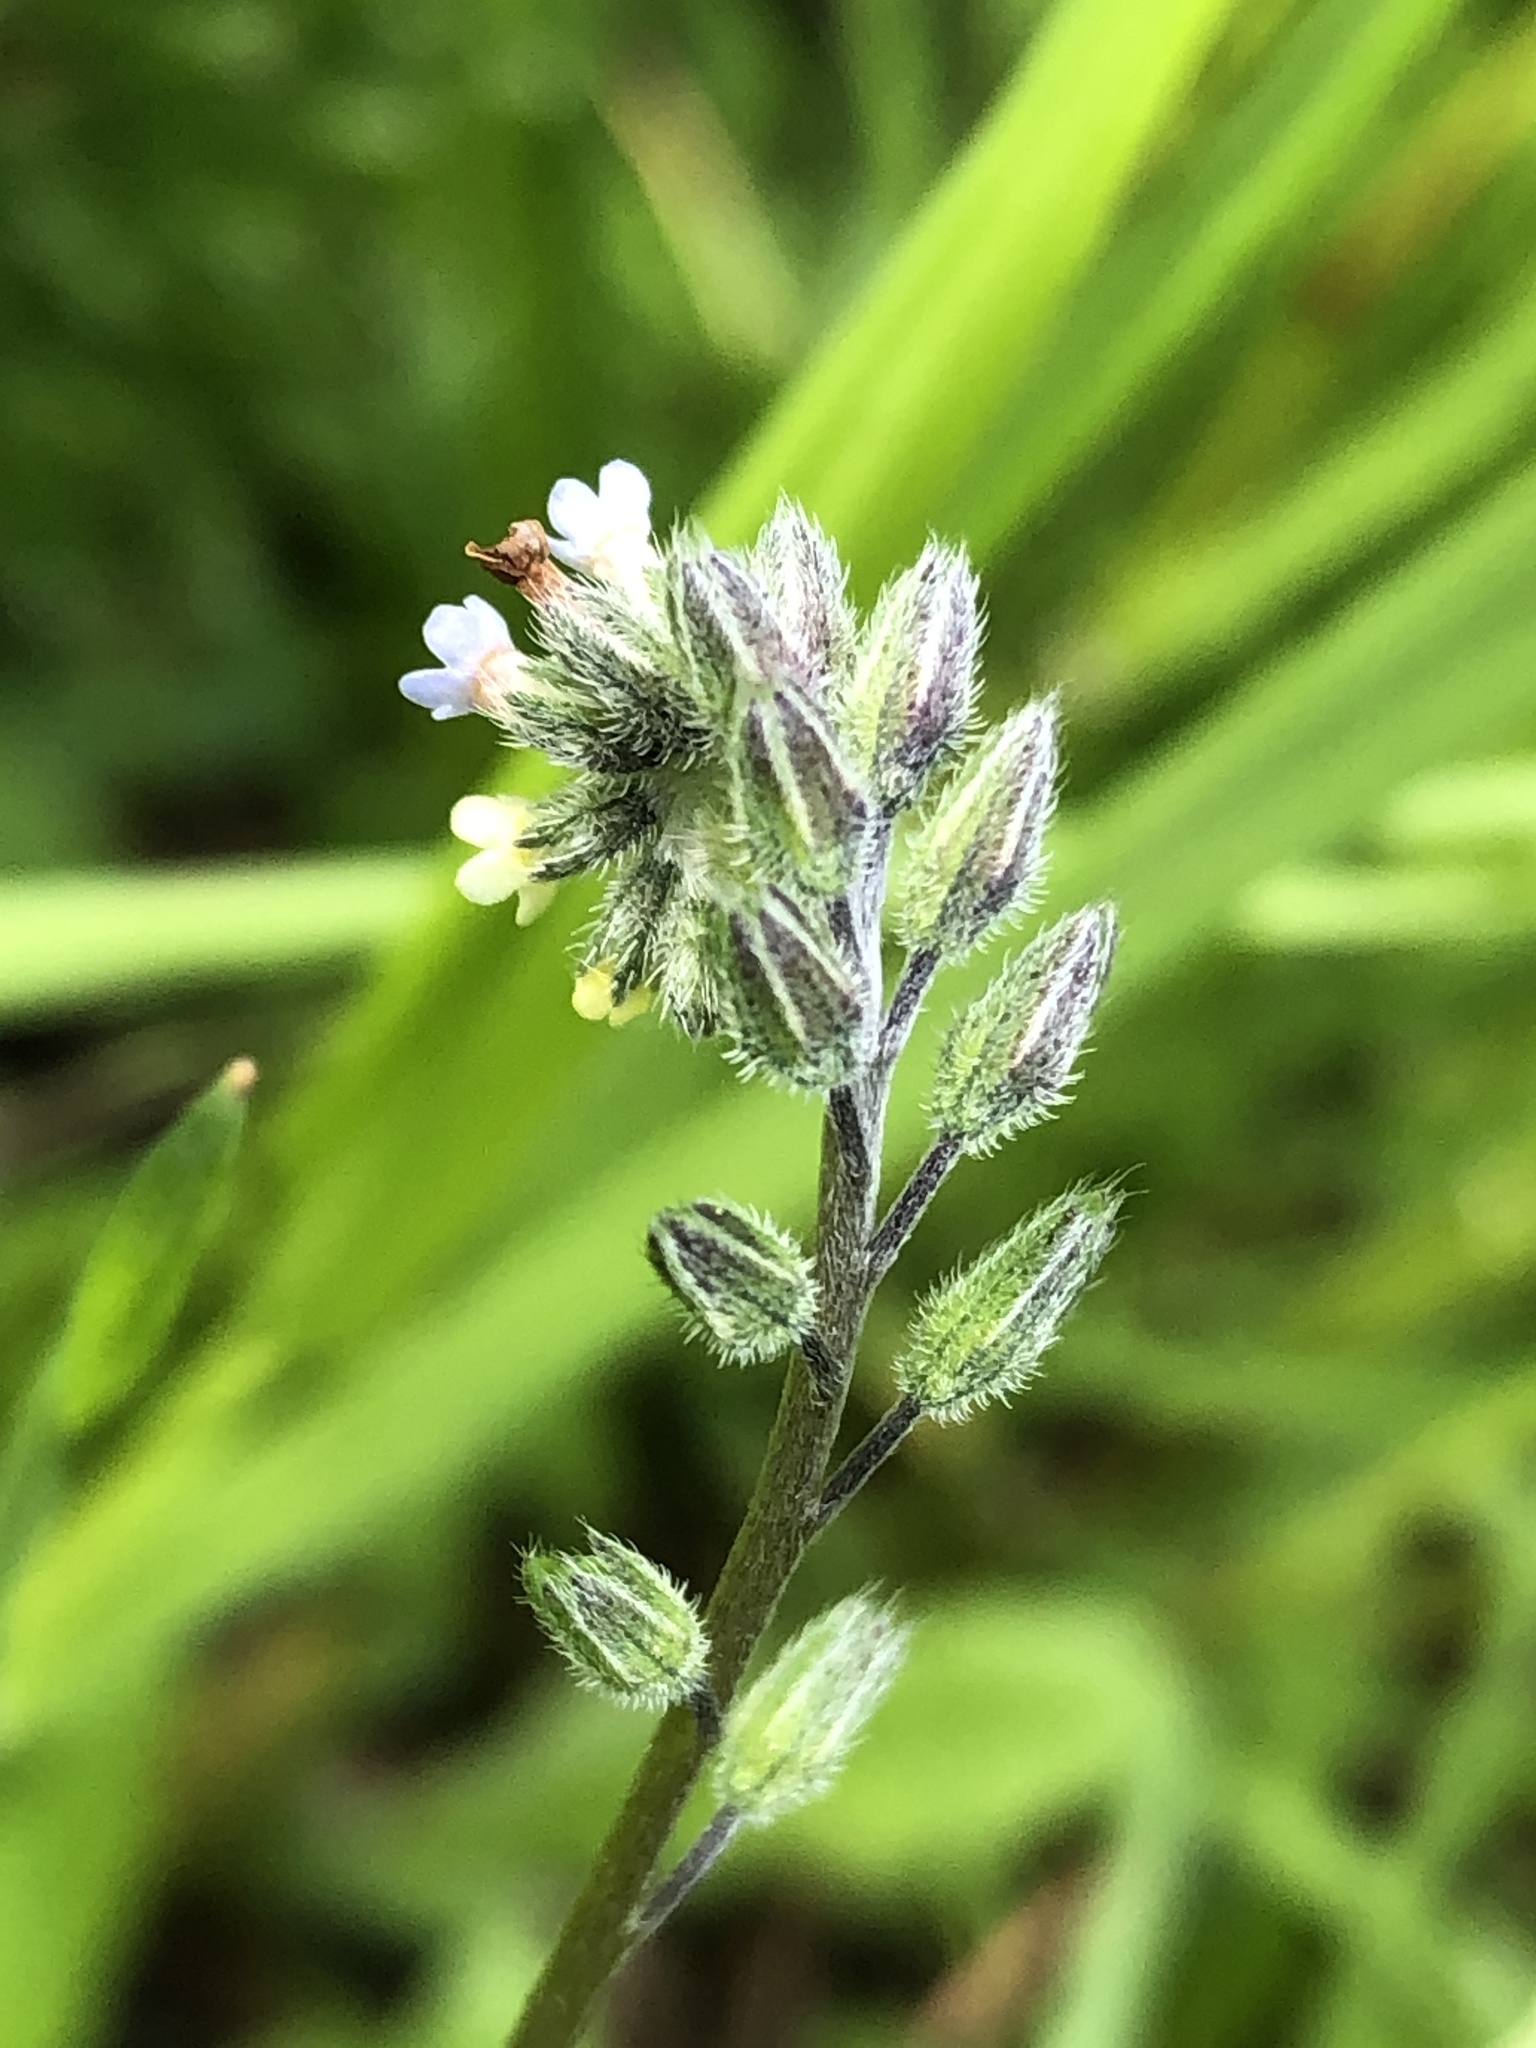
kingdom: Plantae
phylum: Tracheophyta
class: Magnoliopsida
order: Boraginales
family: Boraginaceae
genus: Myosotis
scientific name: Myosotis discolor
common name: Changing forget-me-not
